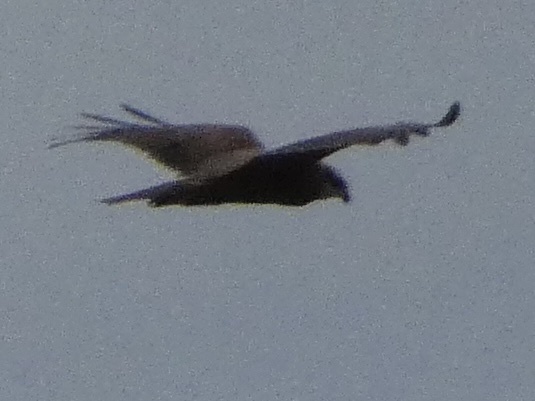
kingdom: Animalia
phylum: Chordata
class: Aves
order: Accipitriformes
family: Accipitridae
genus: Circus
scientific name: Circus aeruginosus
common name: Western marsh harrier
